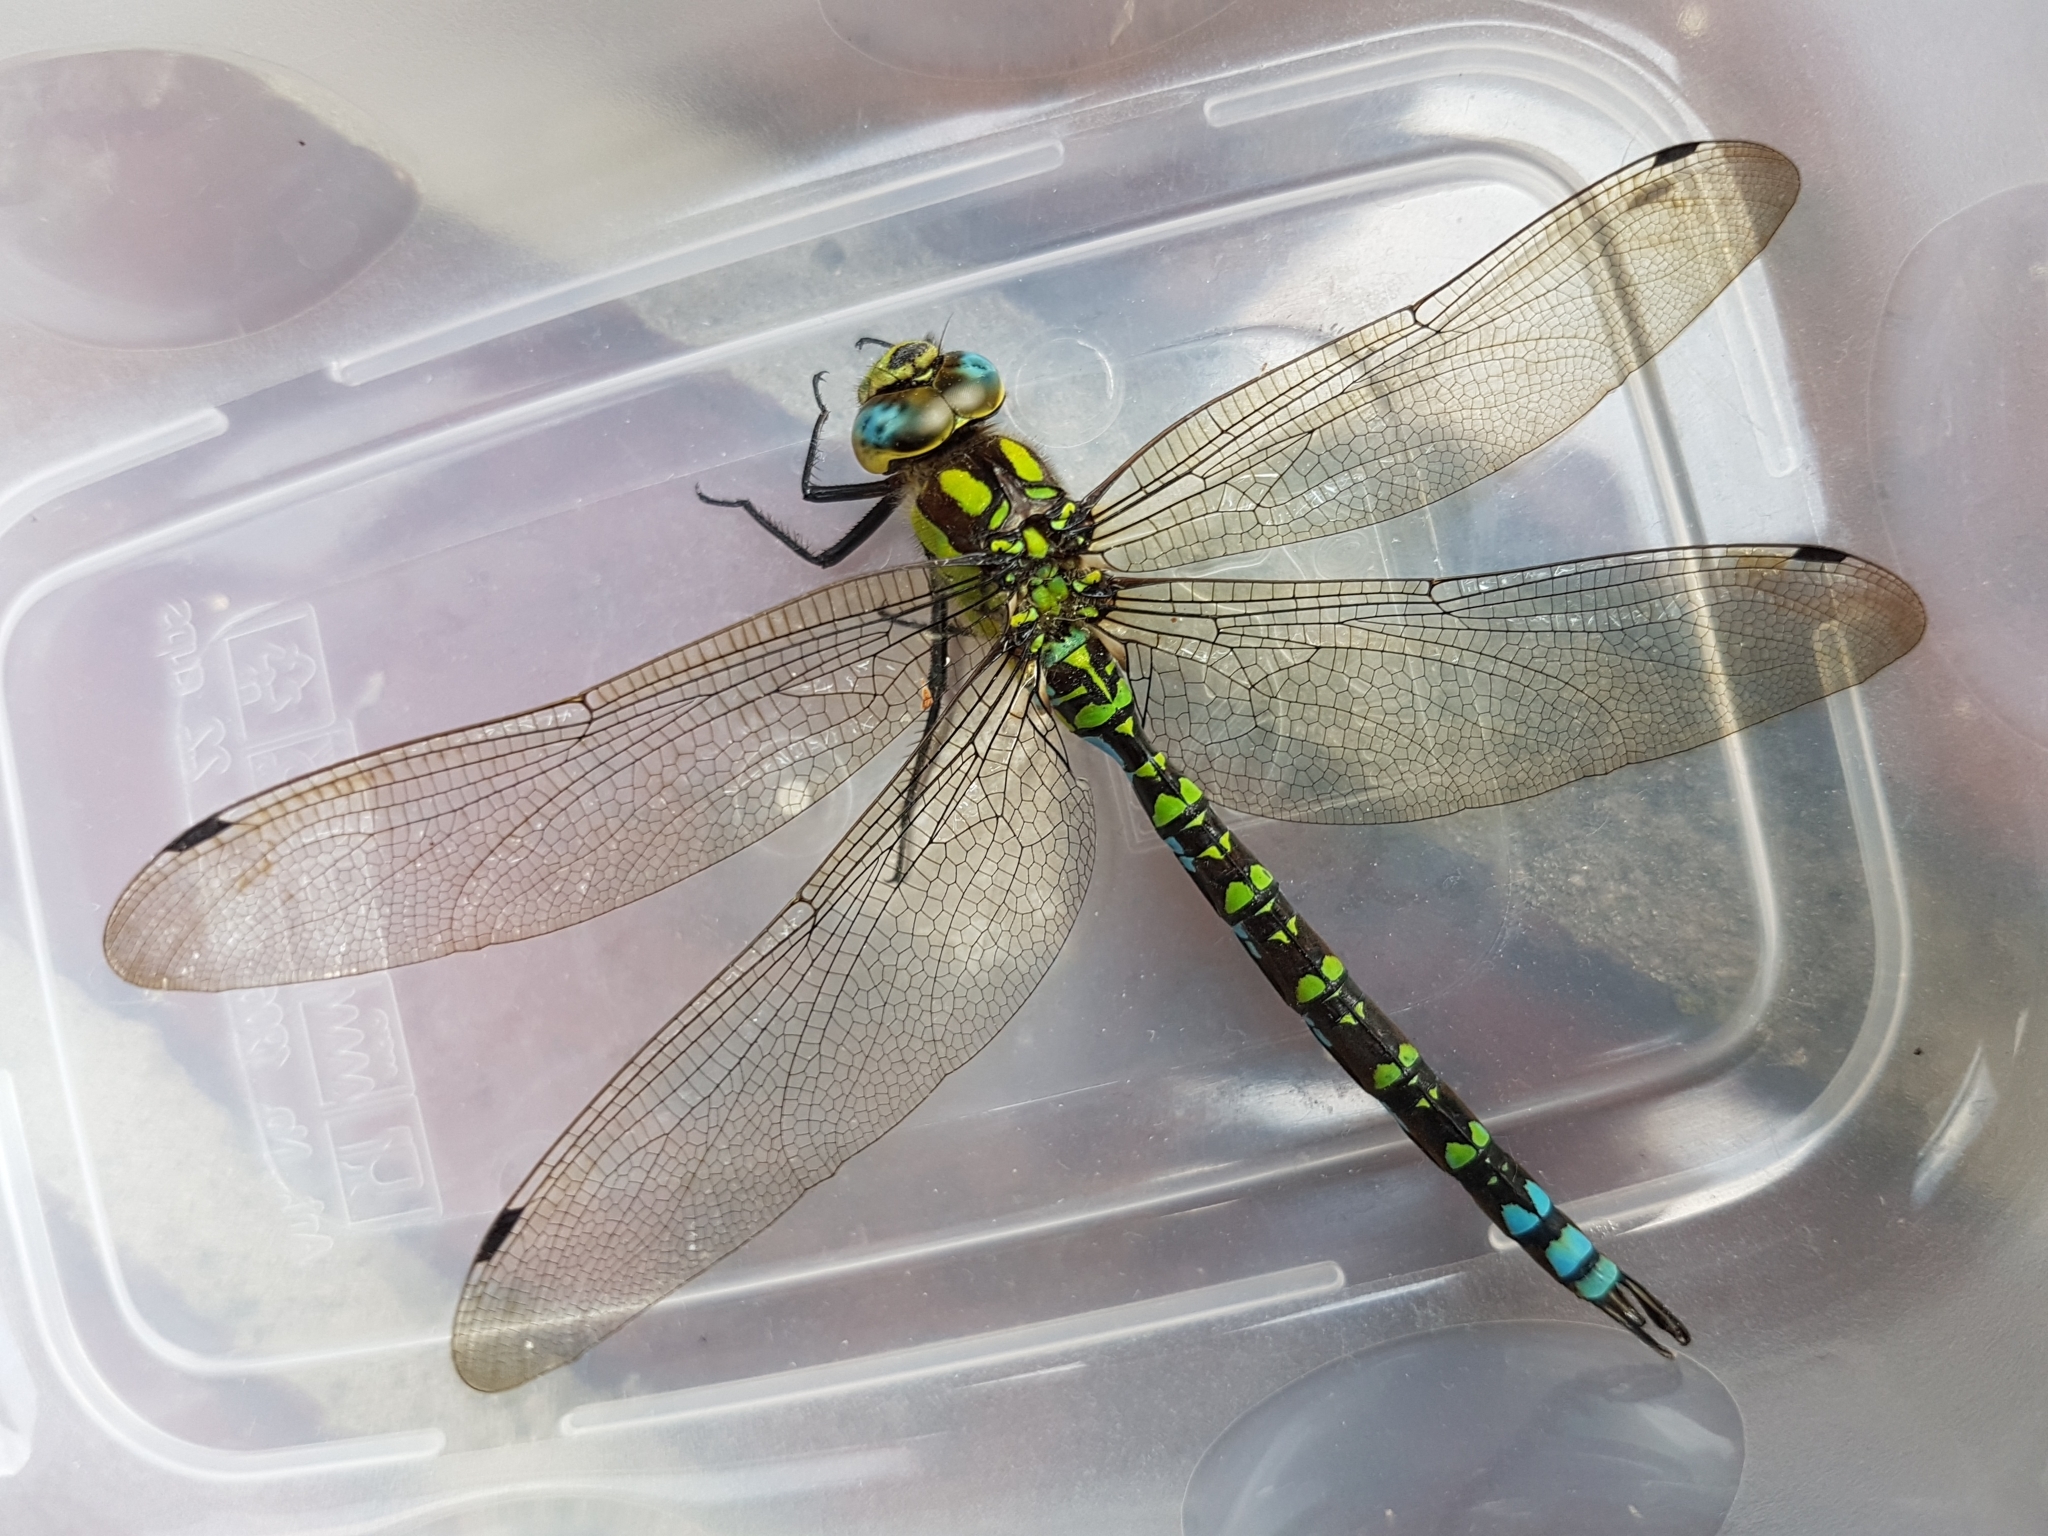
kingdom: Animalia
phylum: Arthropoda
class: Insecta
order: Odonata
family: Aeshnidae
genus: Aeshna
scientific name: Aeshna cyanea
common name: Southern hawker
